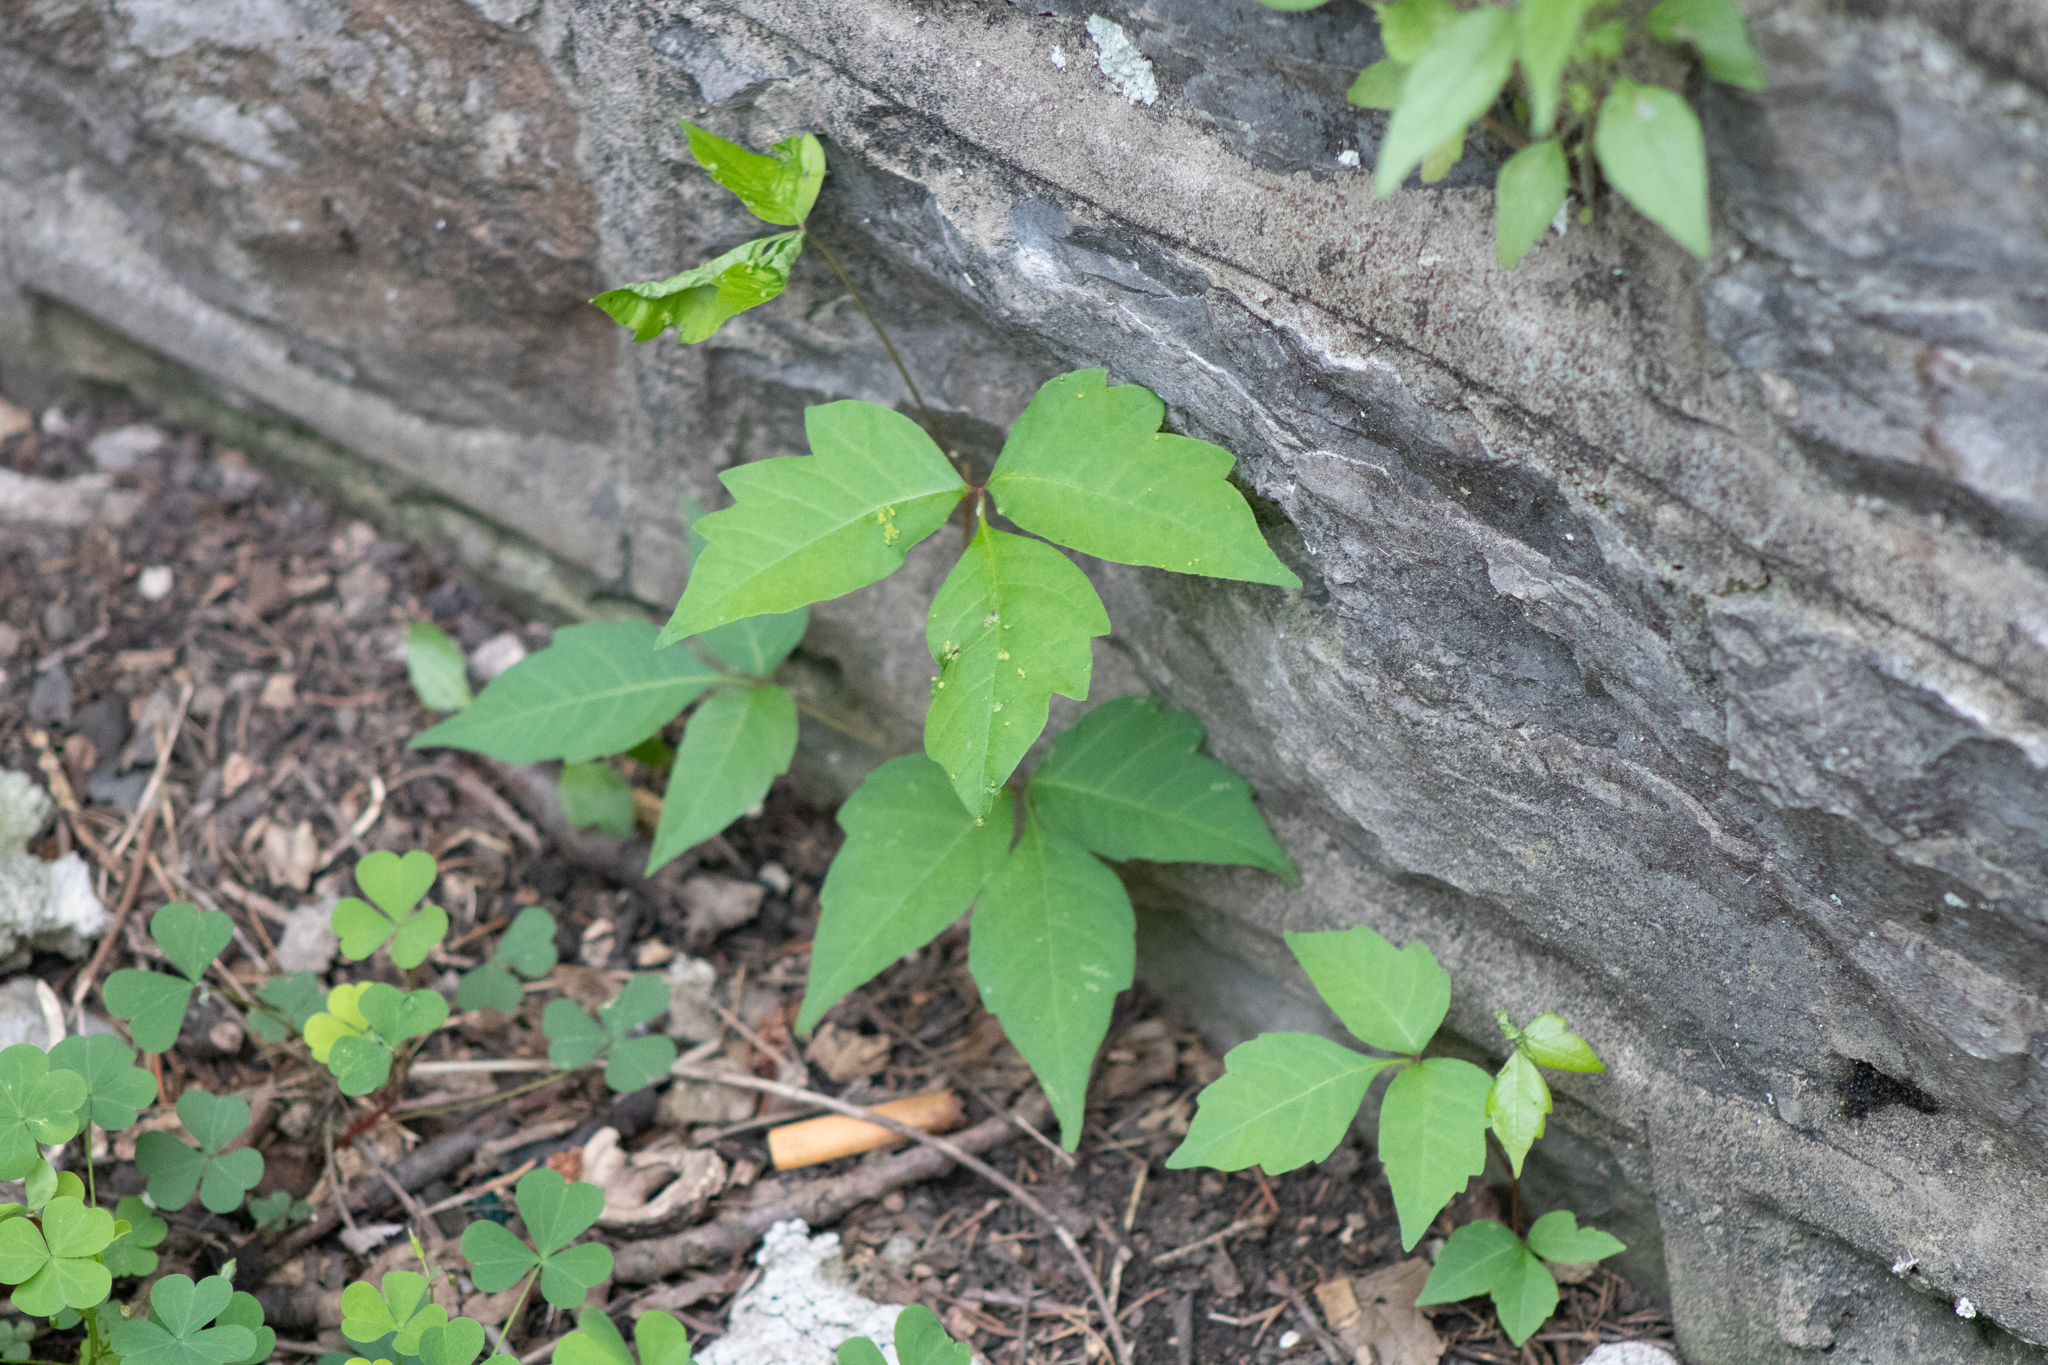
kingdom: Plantae
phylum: Tracheophyta
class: Magnoliopsida
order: Sapindales
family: Anacardiaceae
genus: Toxicodendron
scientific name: Toxicodendron radicans
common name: Poison ivy
